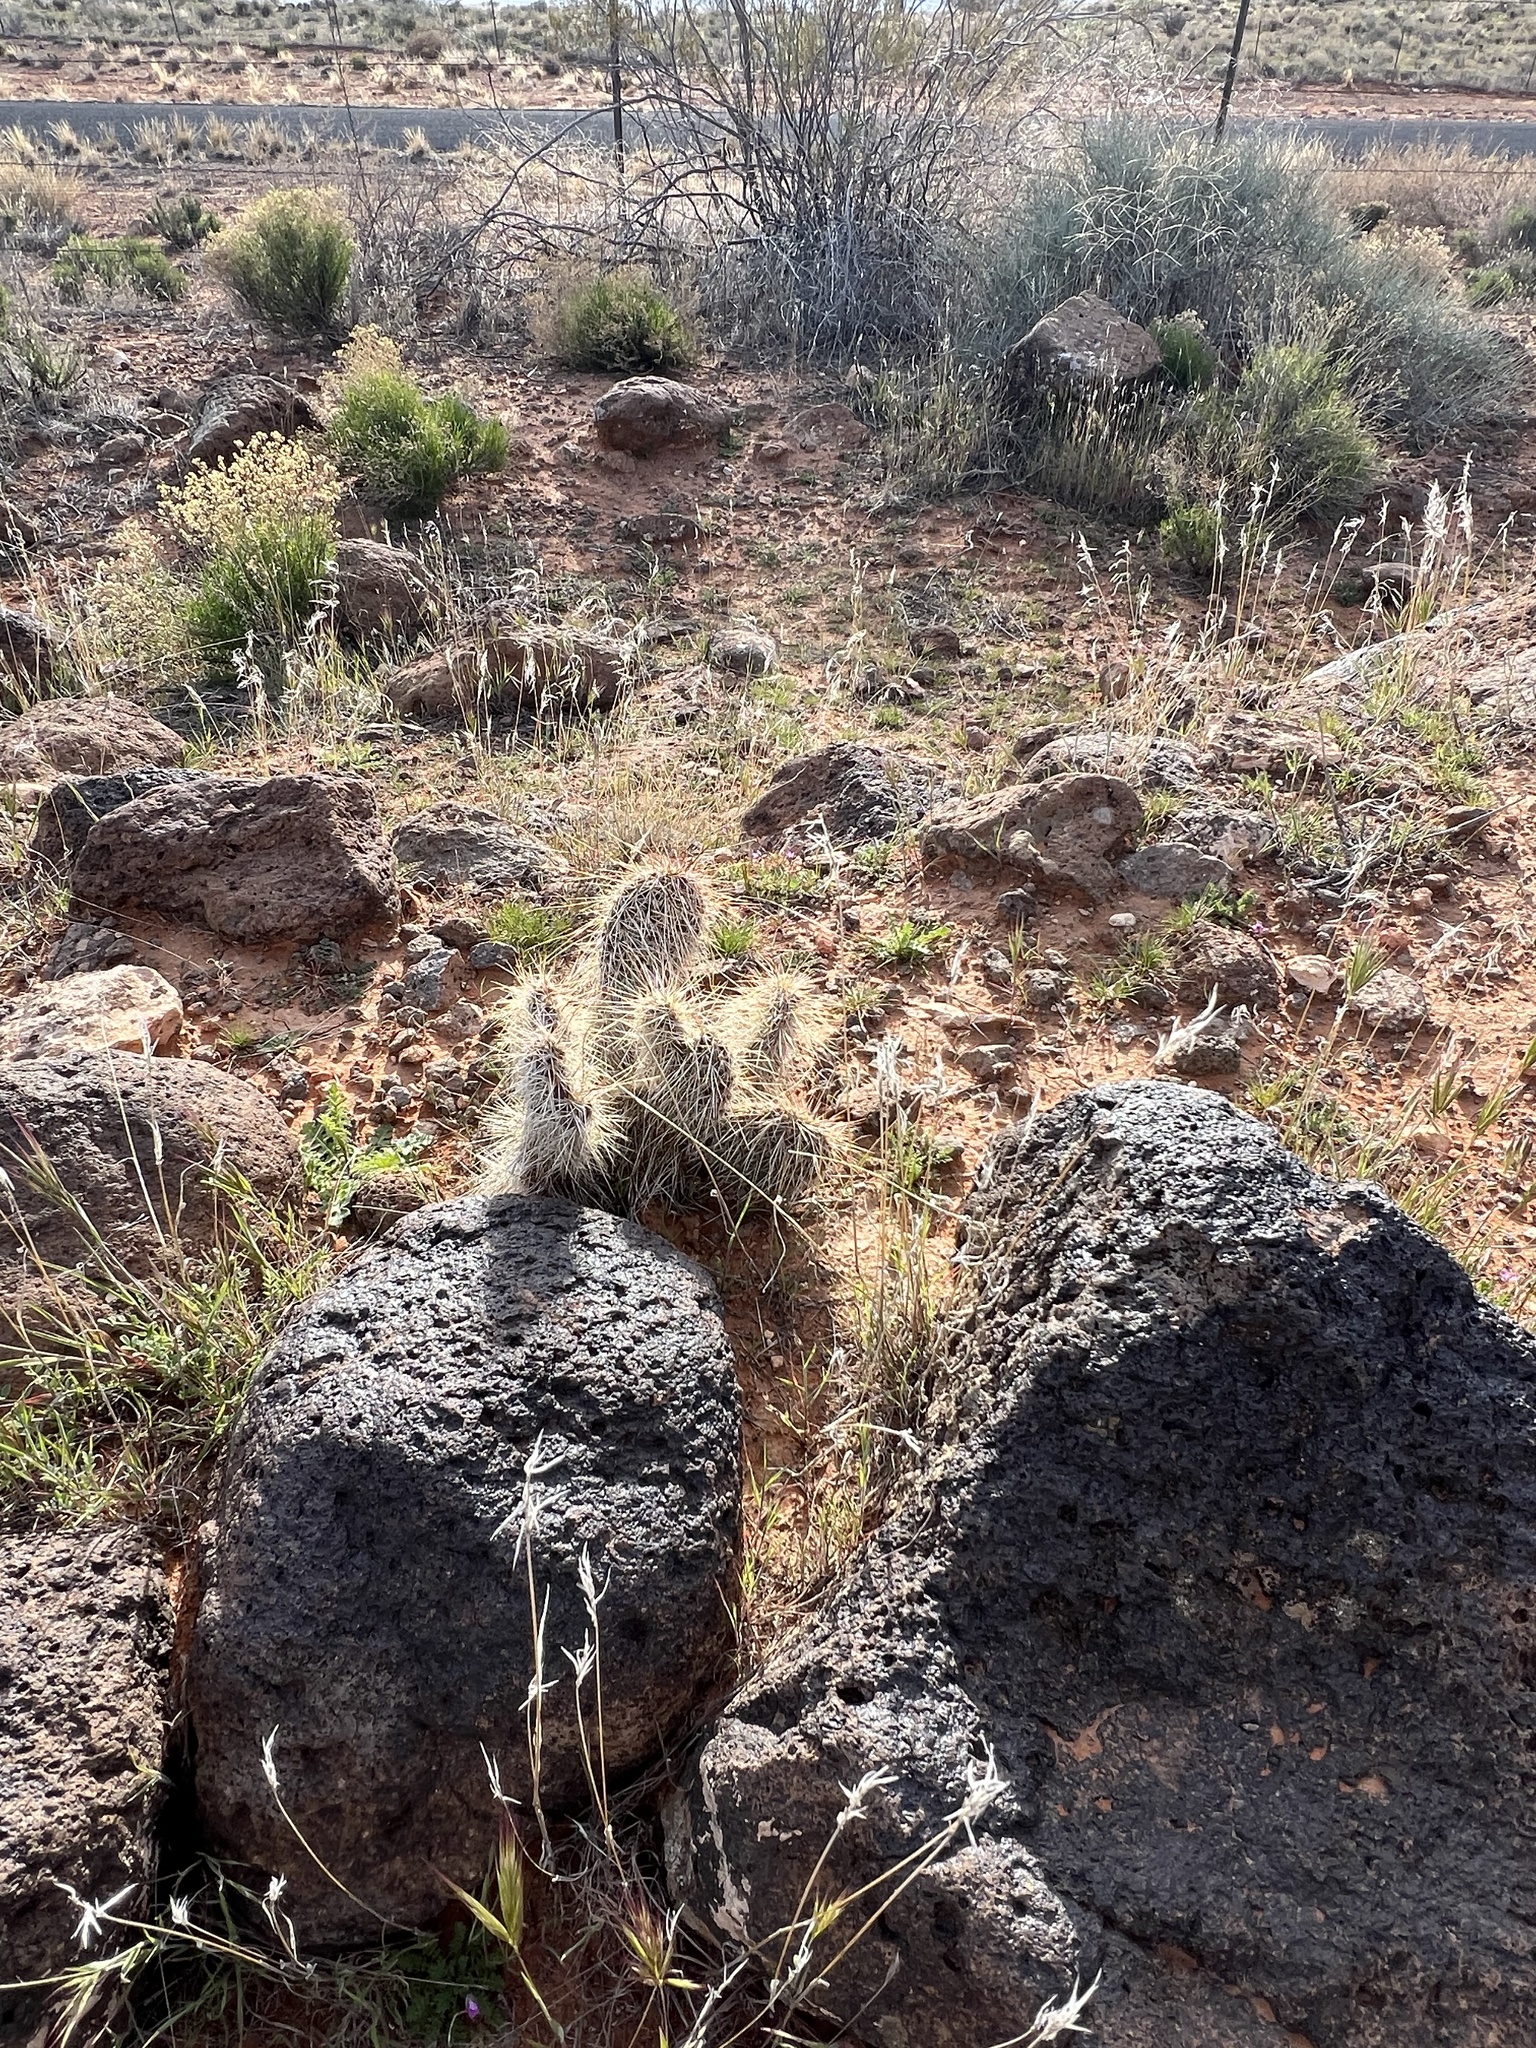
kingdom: Plantae
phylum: Tracheophyta
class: Magnoliopsida
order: Caryophyllales
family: Cactaceae
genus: Opuntia
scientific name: Opuntia polyacantha
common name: Plains prickly-pear
